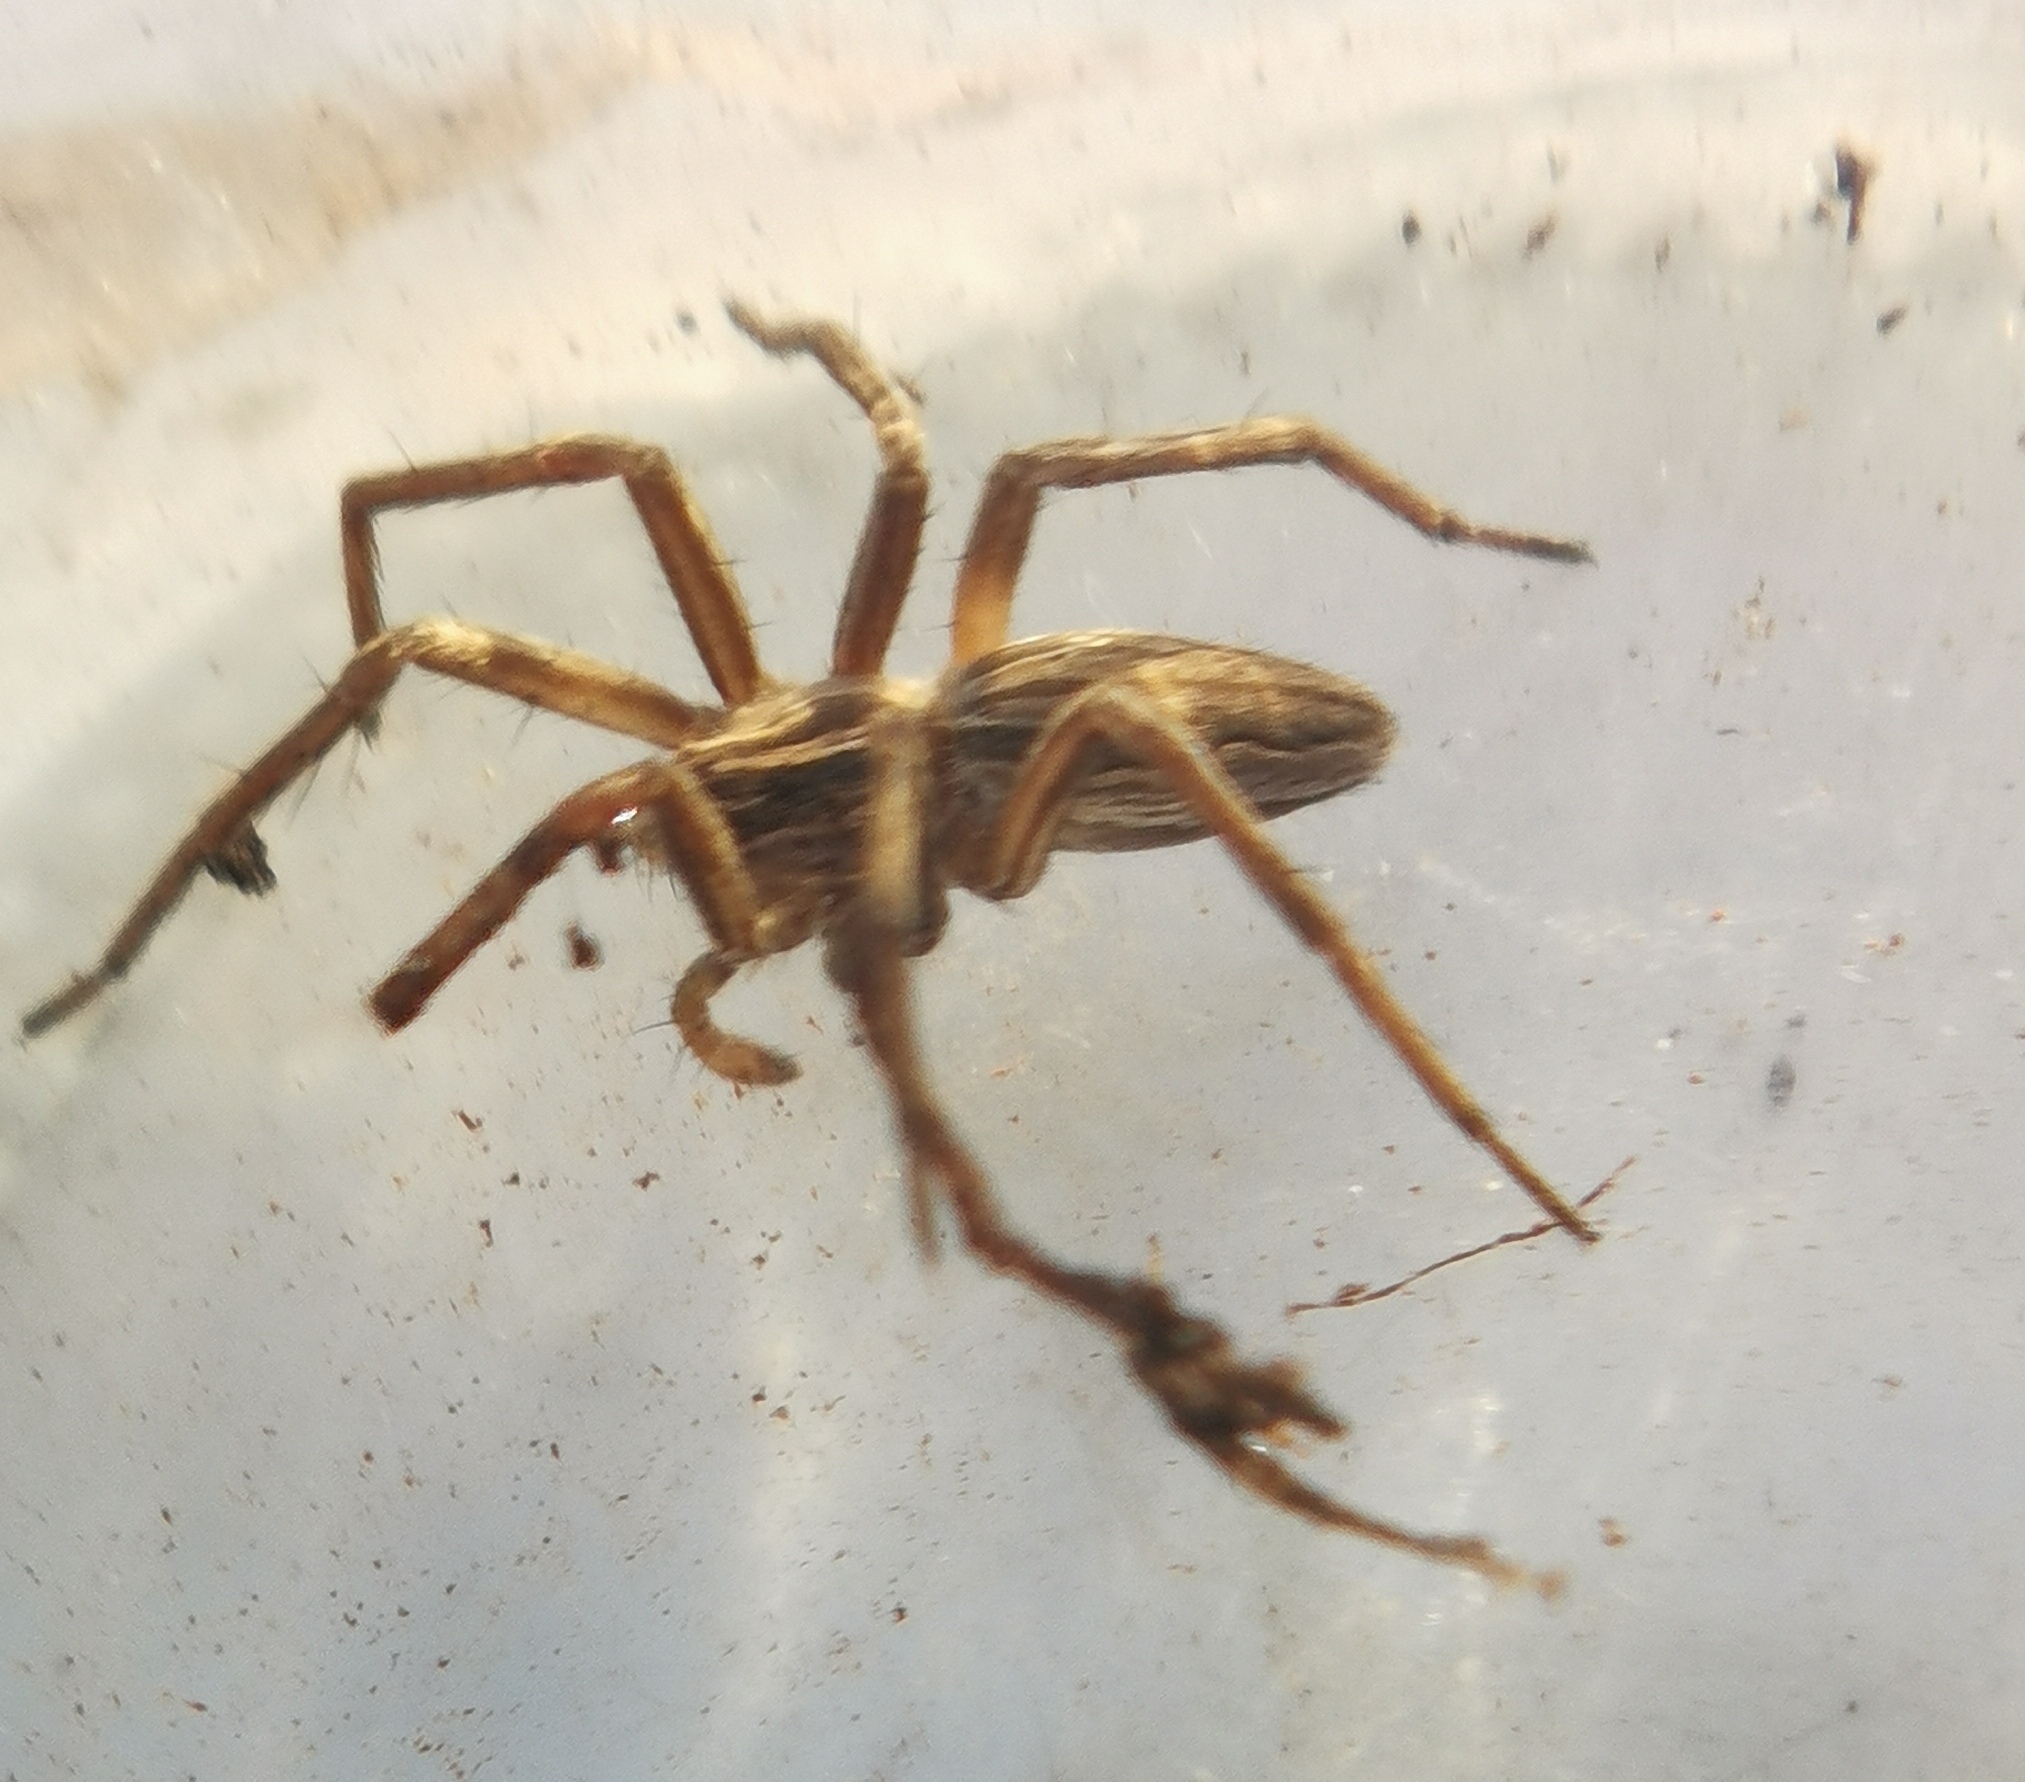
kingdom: Animalia
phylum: Arthropoda
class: Arachnida
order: Araneae
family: Pisauridae
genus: Pisaura
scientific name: Pisaura
